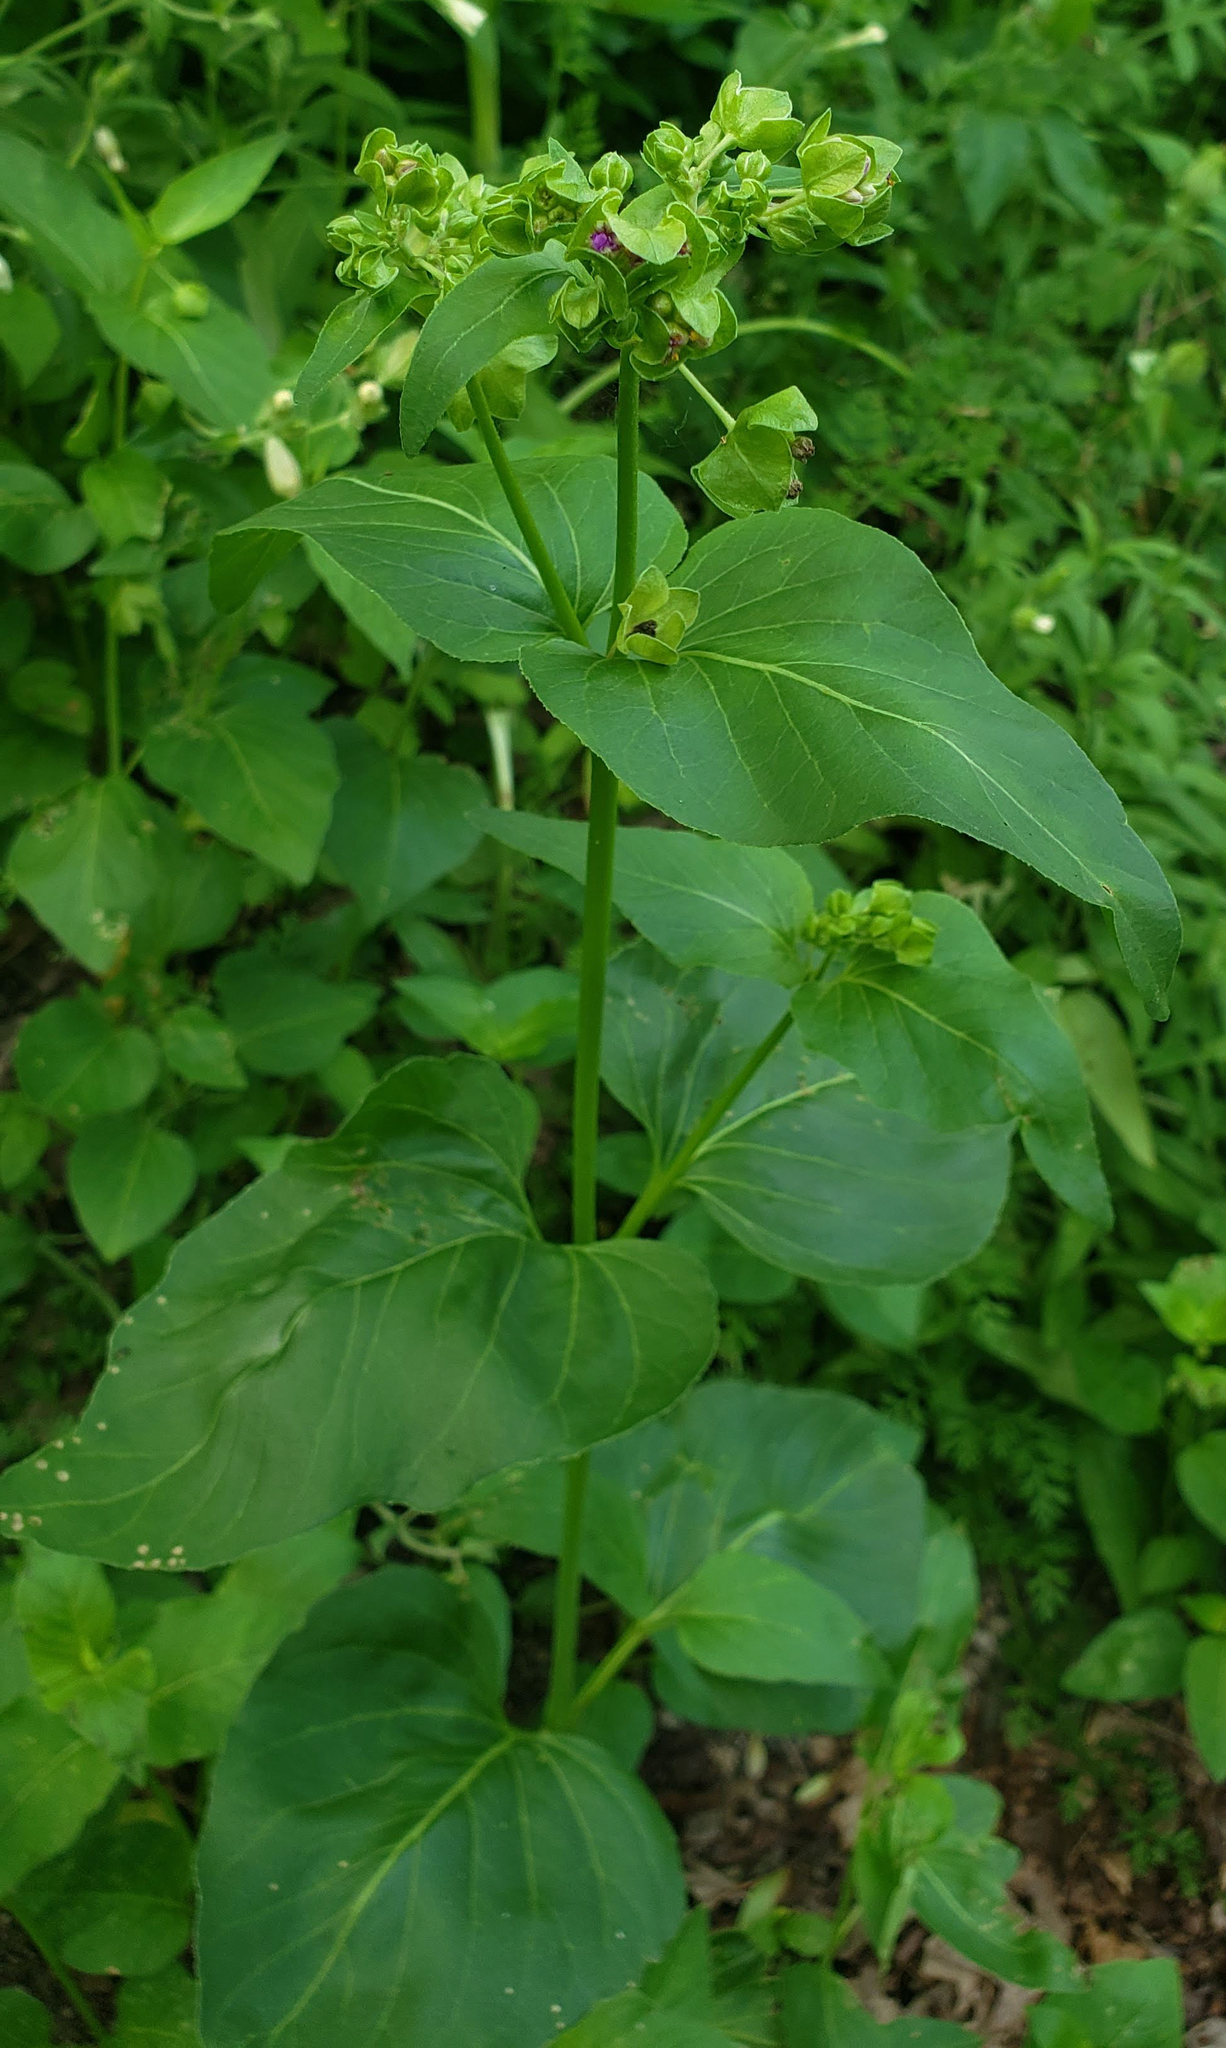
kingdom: Plantae
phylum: Tracheophyta
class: Magnoliopsida
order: Caryophyllales
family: Nyctaginaceae
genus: Mirabilis
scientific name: Mirabilis nyctaginea
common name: Umbrella wort
